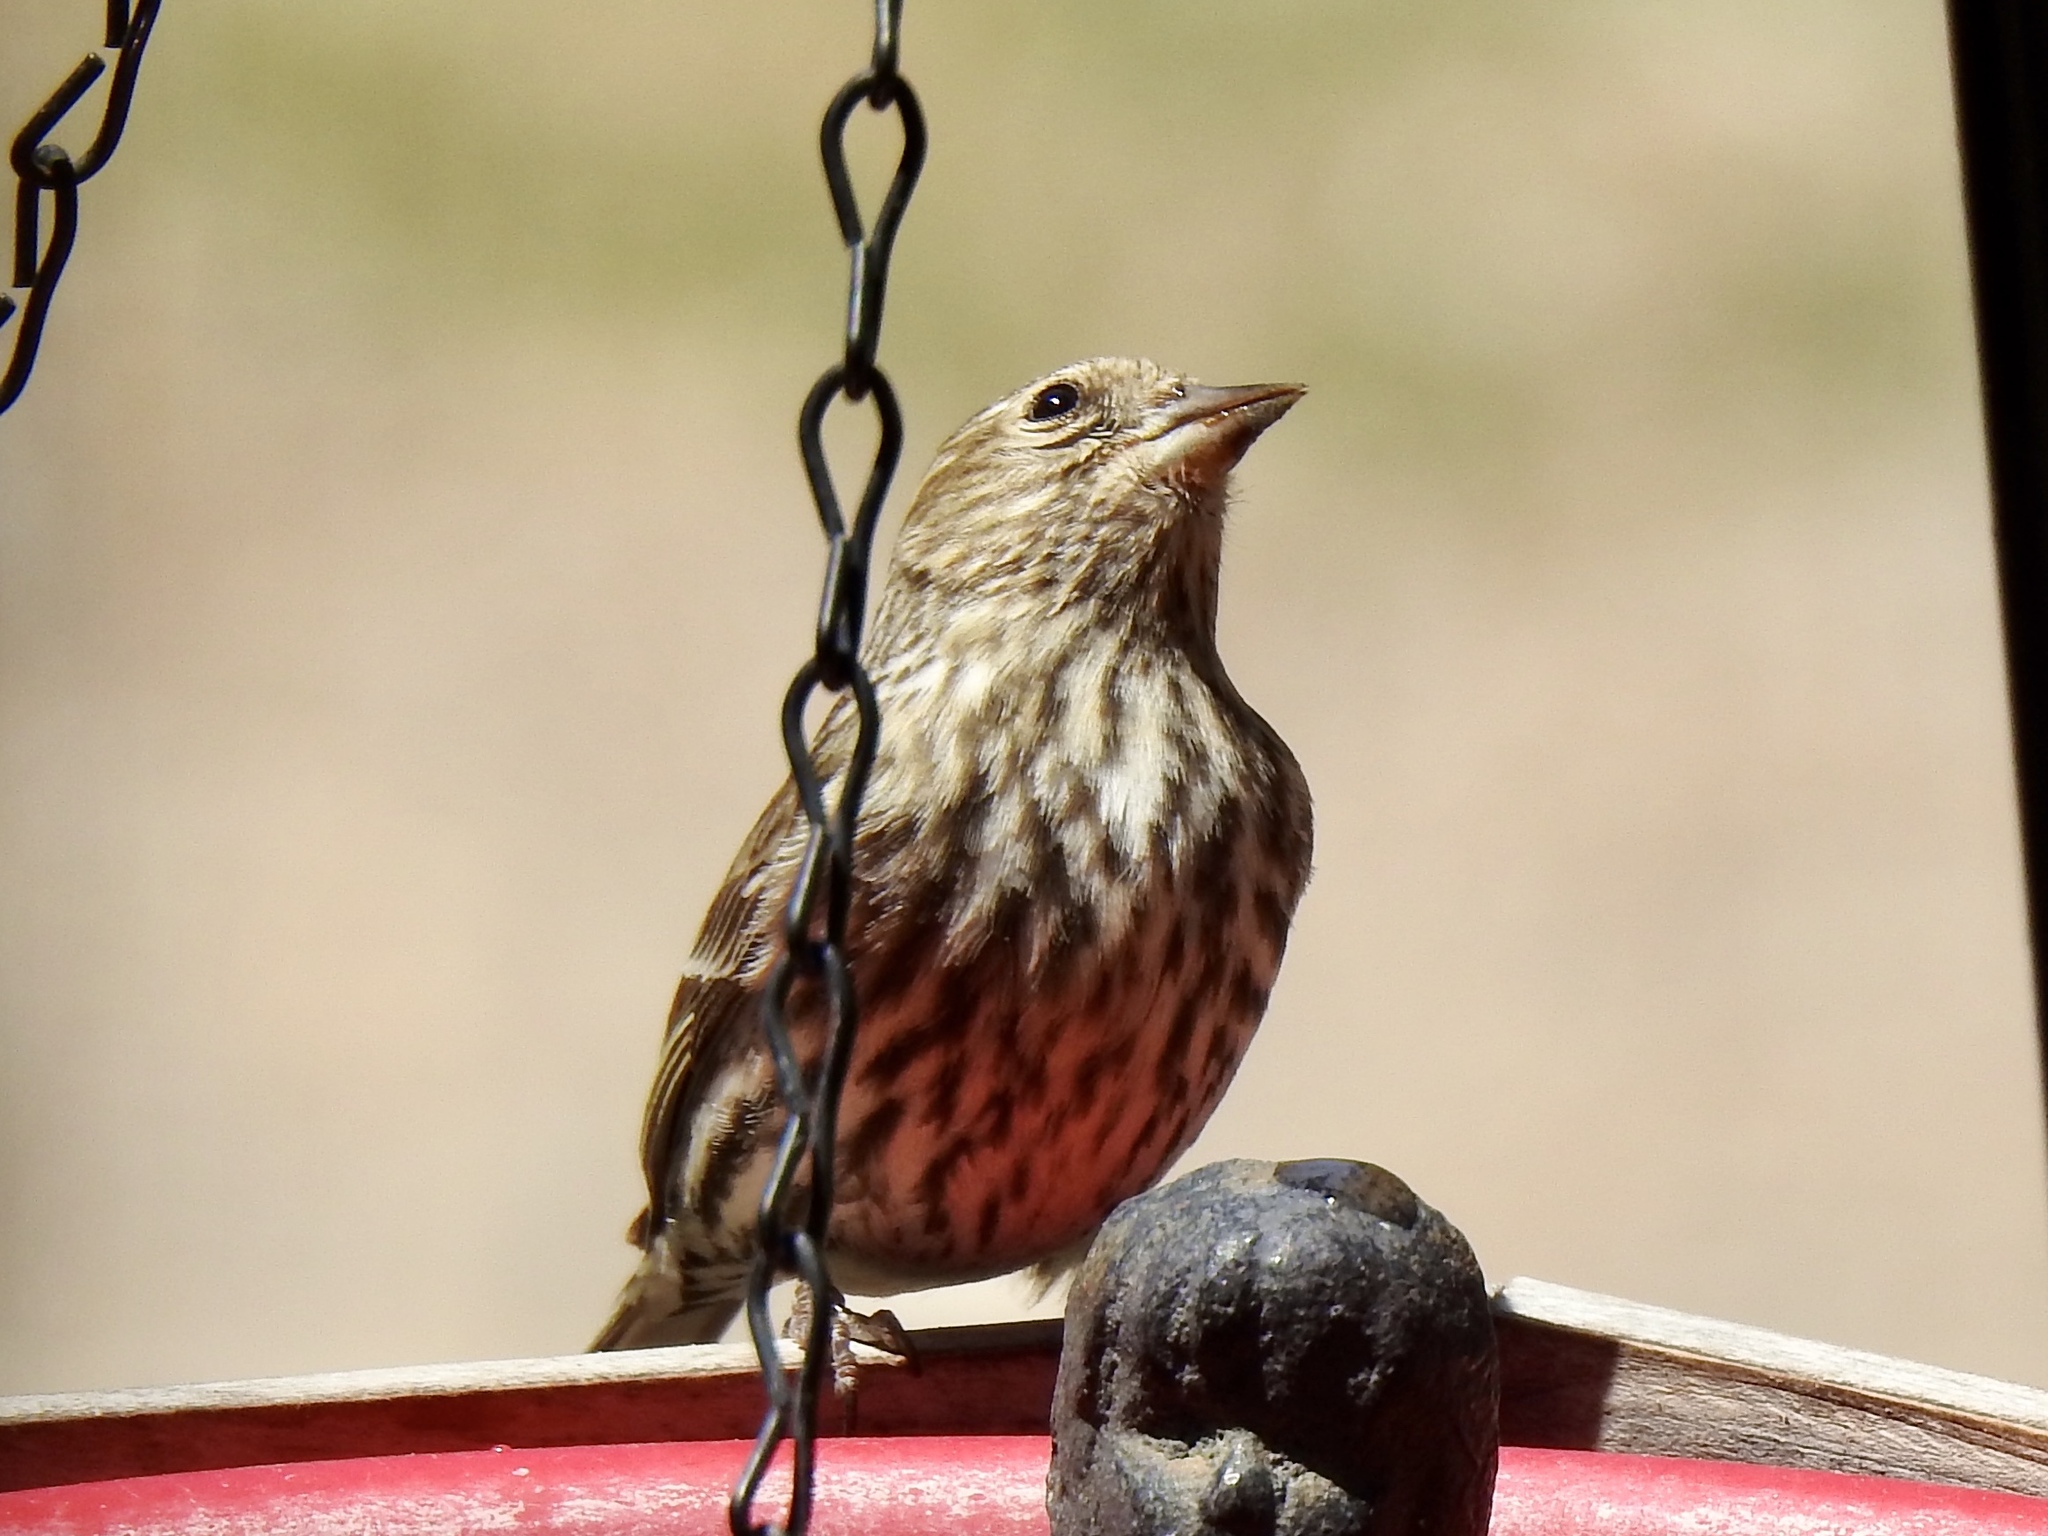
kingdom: Animalia
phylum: Chordata
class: Aves
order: Passeriformes
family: Fringillidae
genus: Spinus
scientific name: Spinus pinus
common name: Pine siskin
